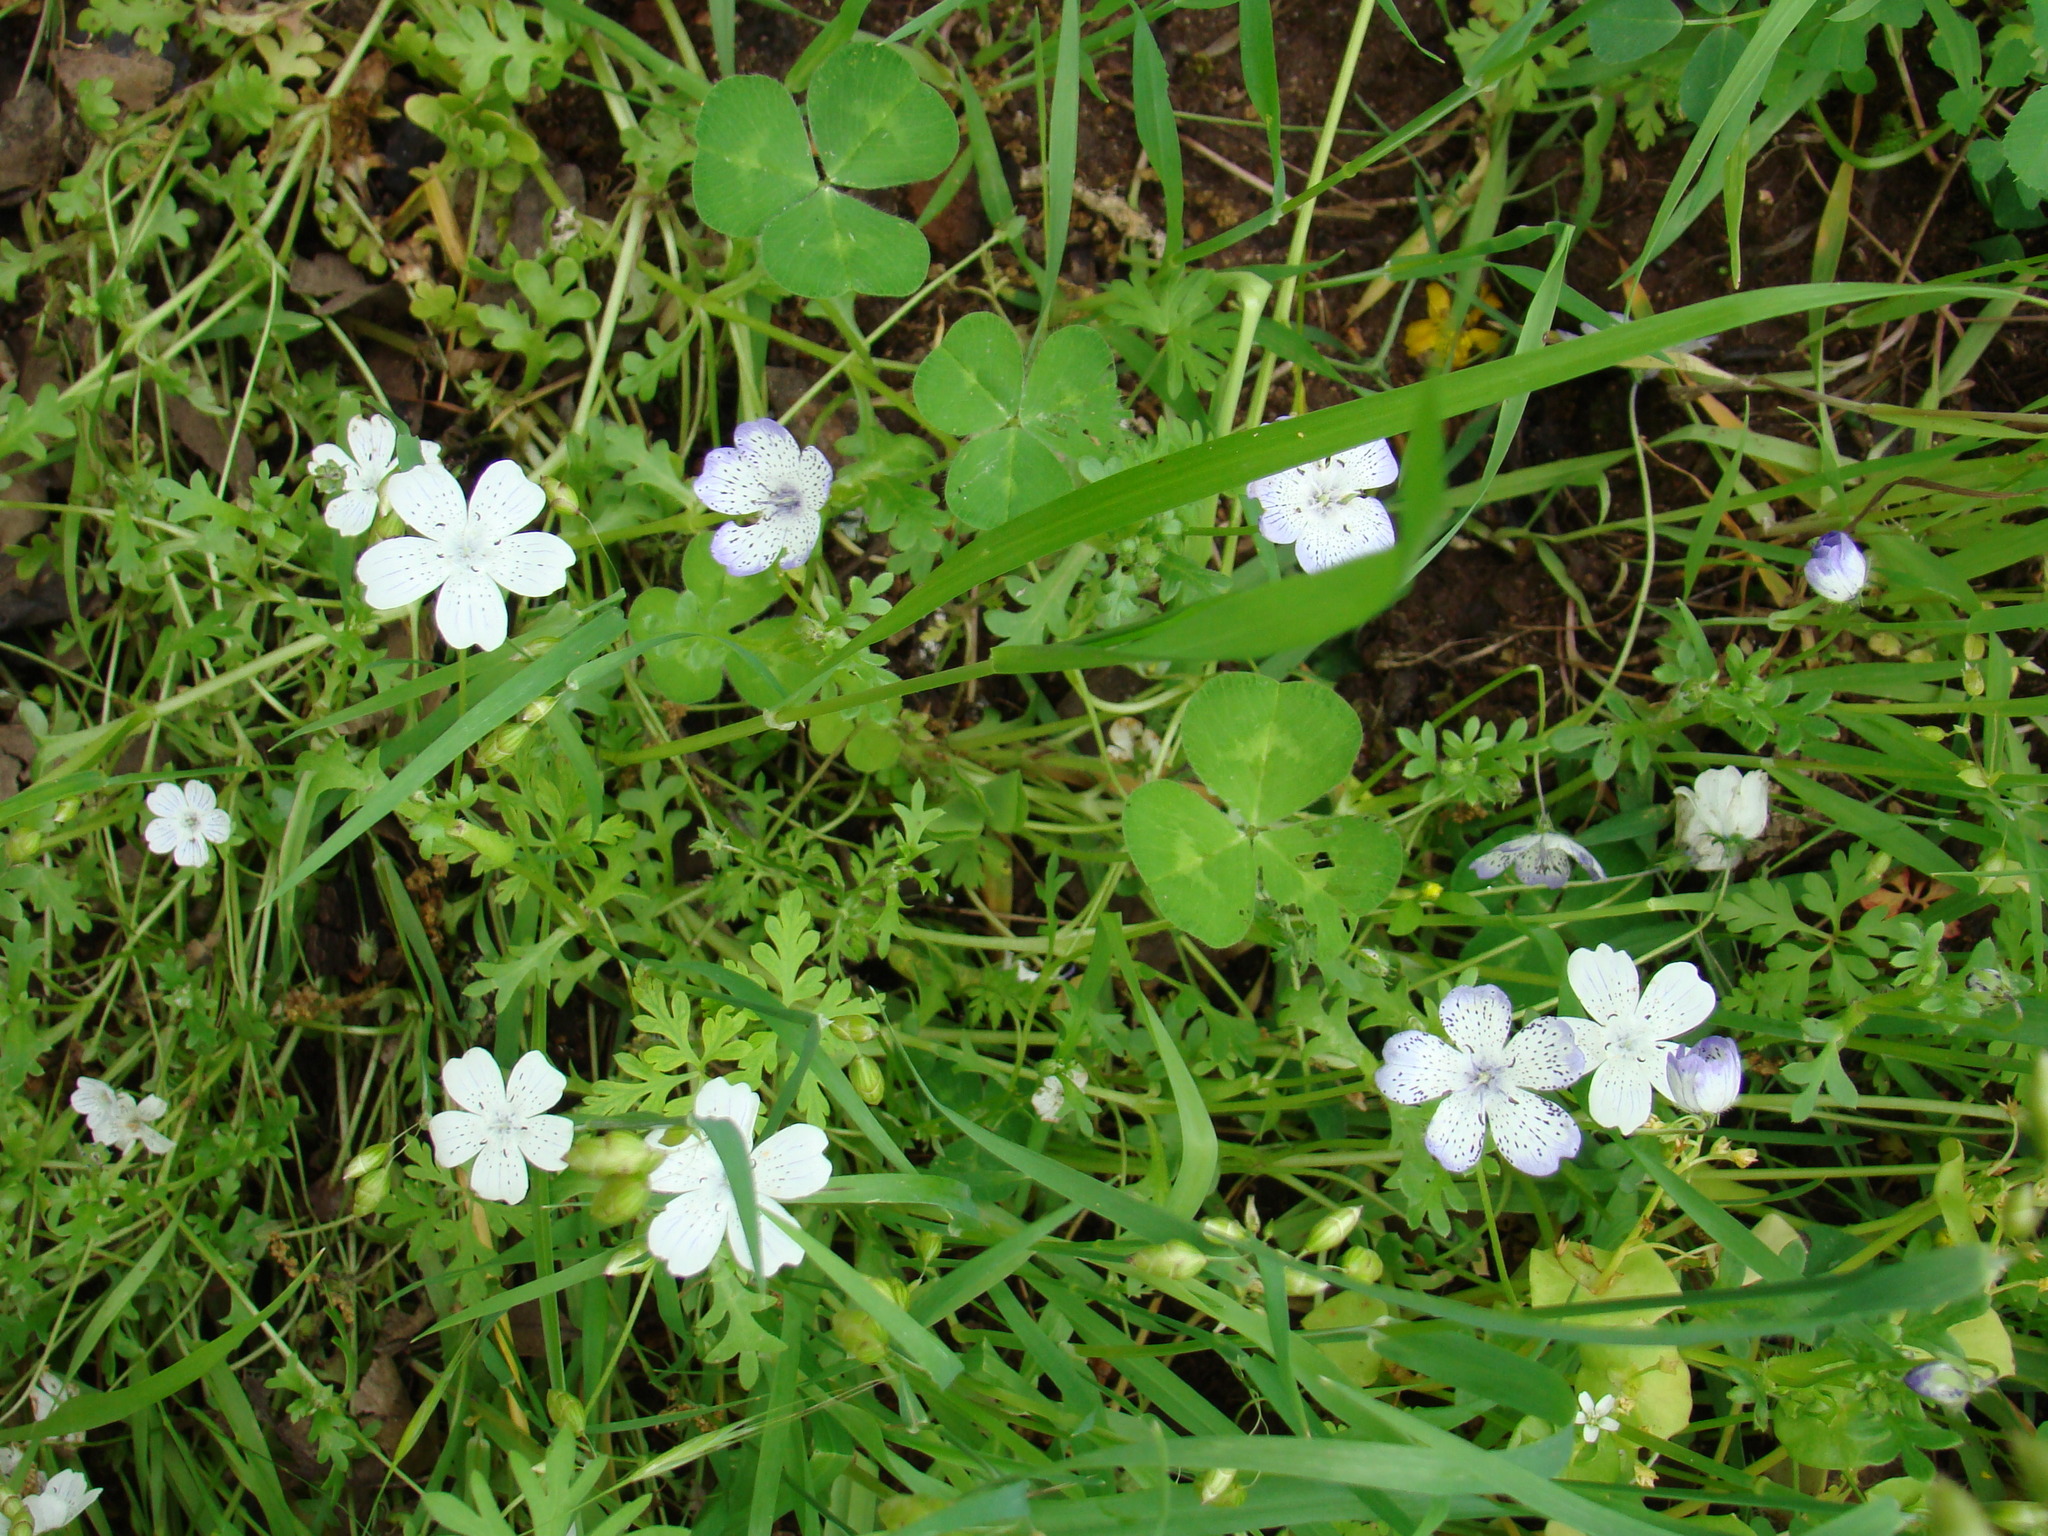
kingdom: Plantae
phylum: Tracheophyta
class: Magnoliopsida
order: Boraginales
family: Hydrophyllaceae
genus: Nemophila
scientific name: Nemophila menziesii
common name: Baby's-blue-eyes
